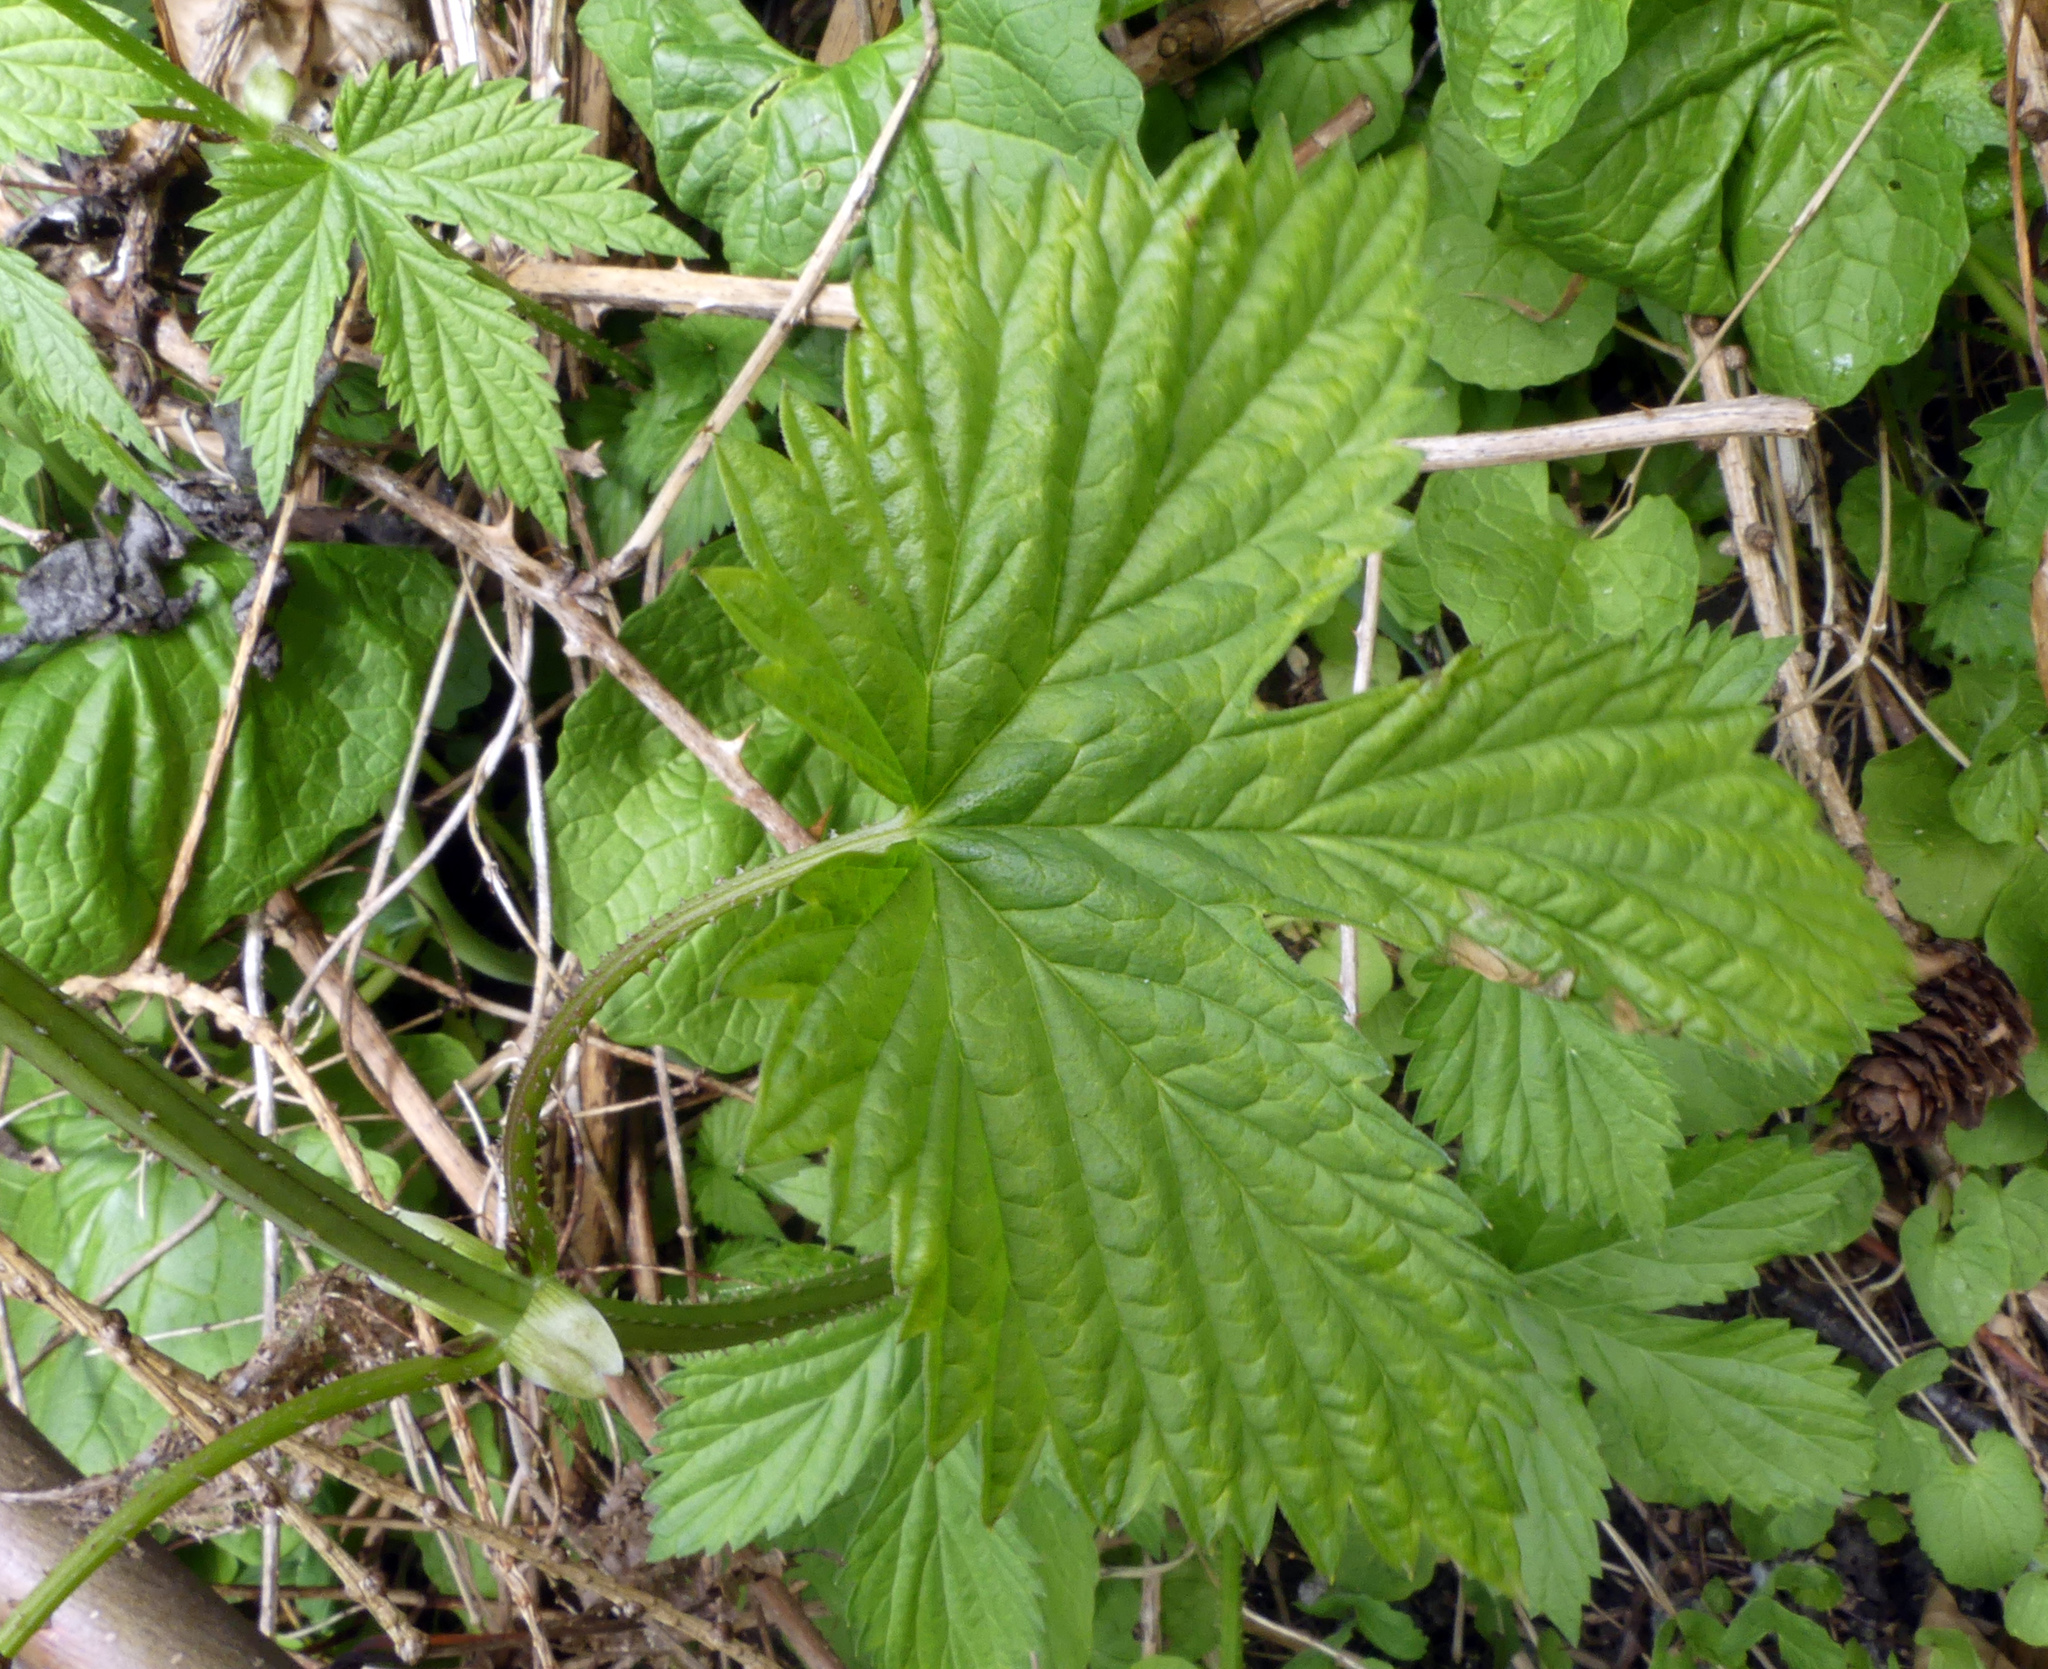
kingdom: Plantae
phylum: Tracheophyta
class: Magnoliopsida
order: Rosales
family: Cannabaceae
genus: Humulus
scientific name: Humulus lupulus
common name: Hop
